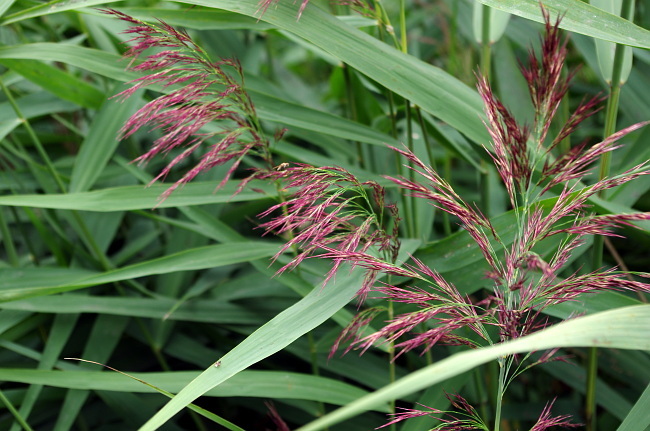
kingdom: Plantae
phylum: Tracheophyta
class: Liliopsida
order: Poales
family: Poaceae
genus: Phragmites
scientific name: Phragmites australis
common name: Common reed
